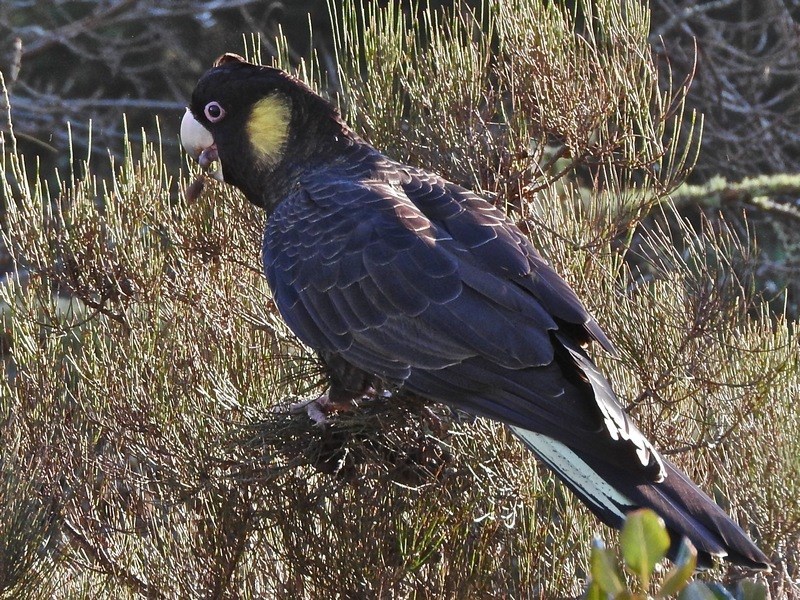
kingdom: Animalia
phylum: Chordata
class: Aves
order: Psittaciformes
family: Cacatuidae
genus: Zanda
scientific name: Zanda funerea
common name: Yellow-tailed black-cockatoo
